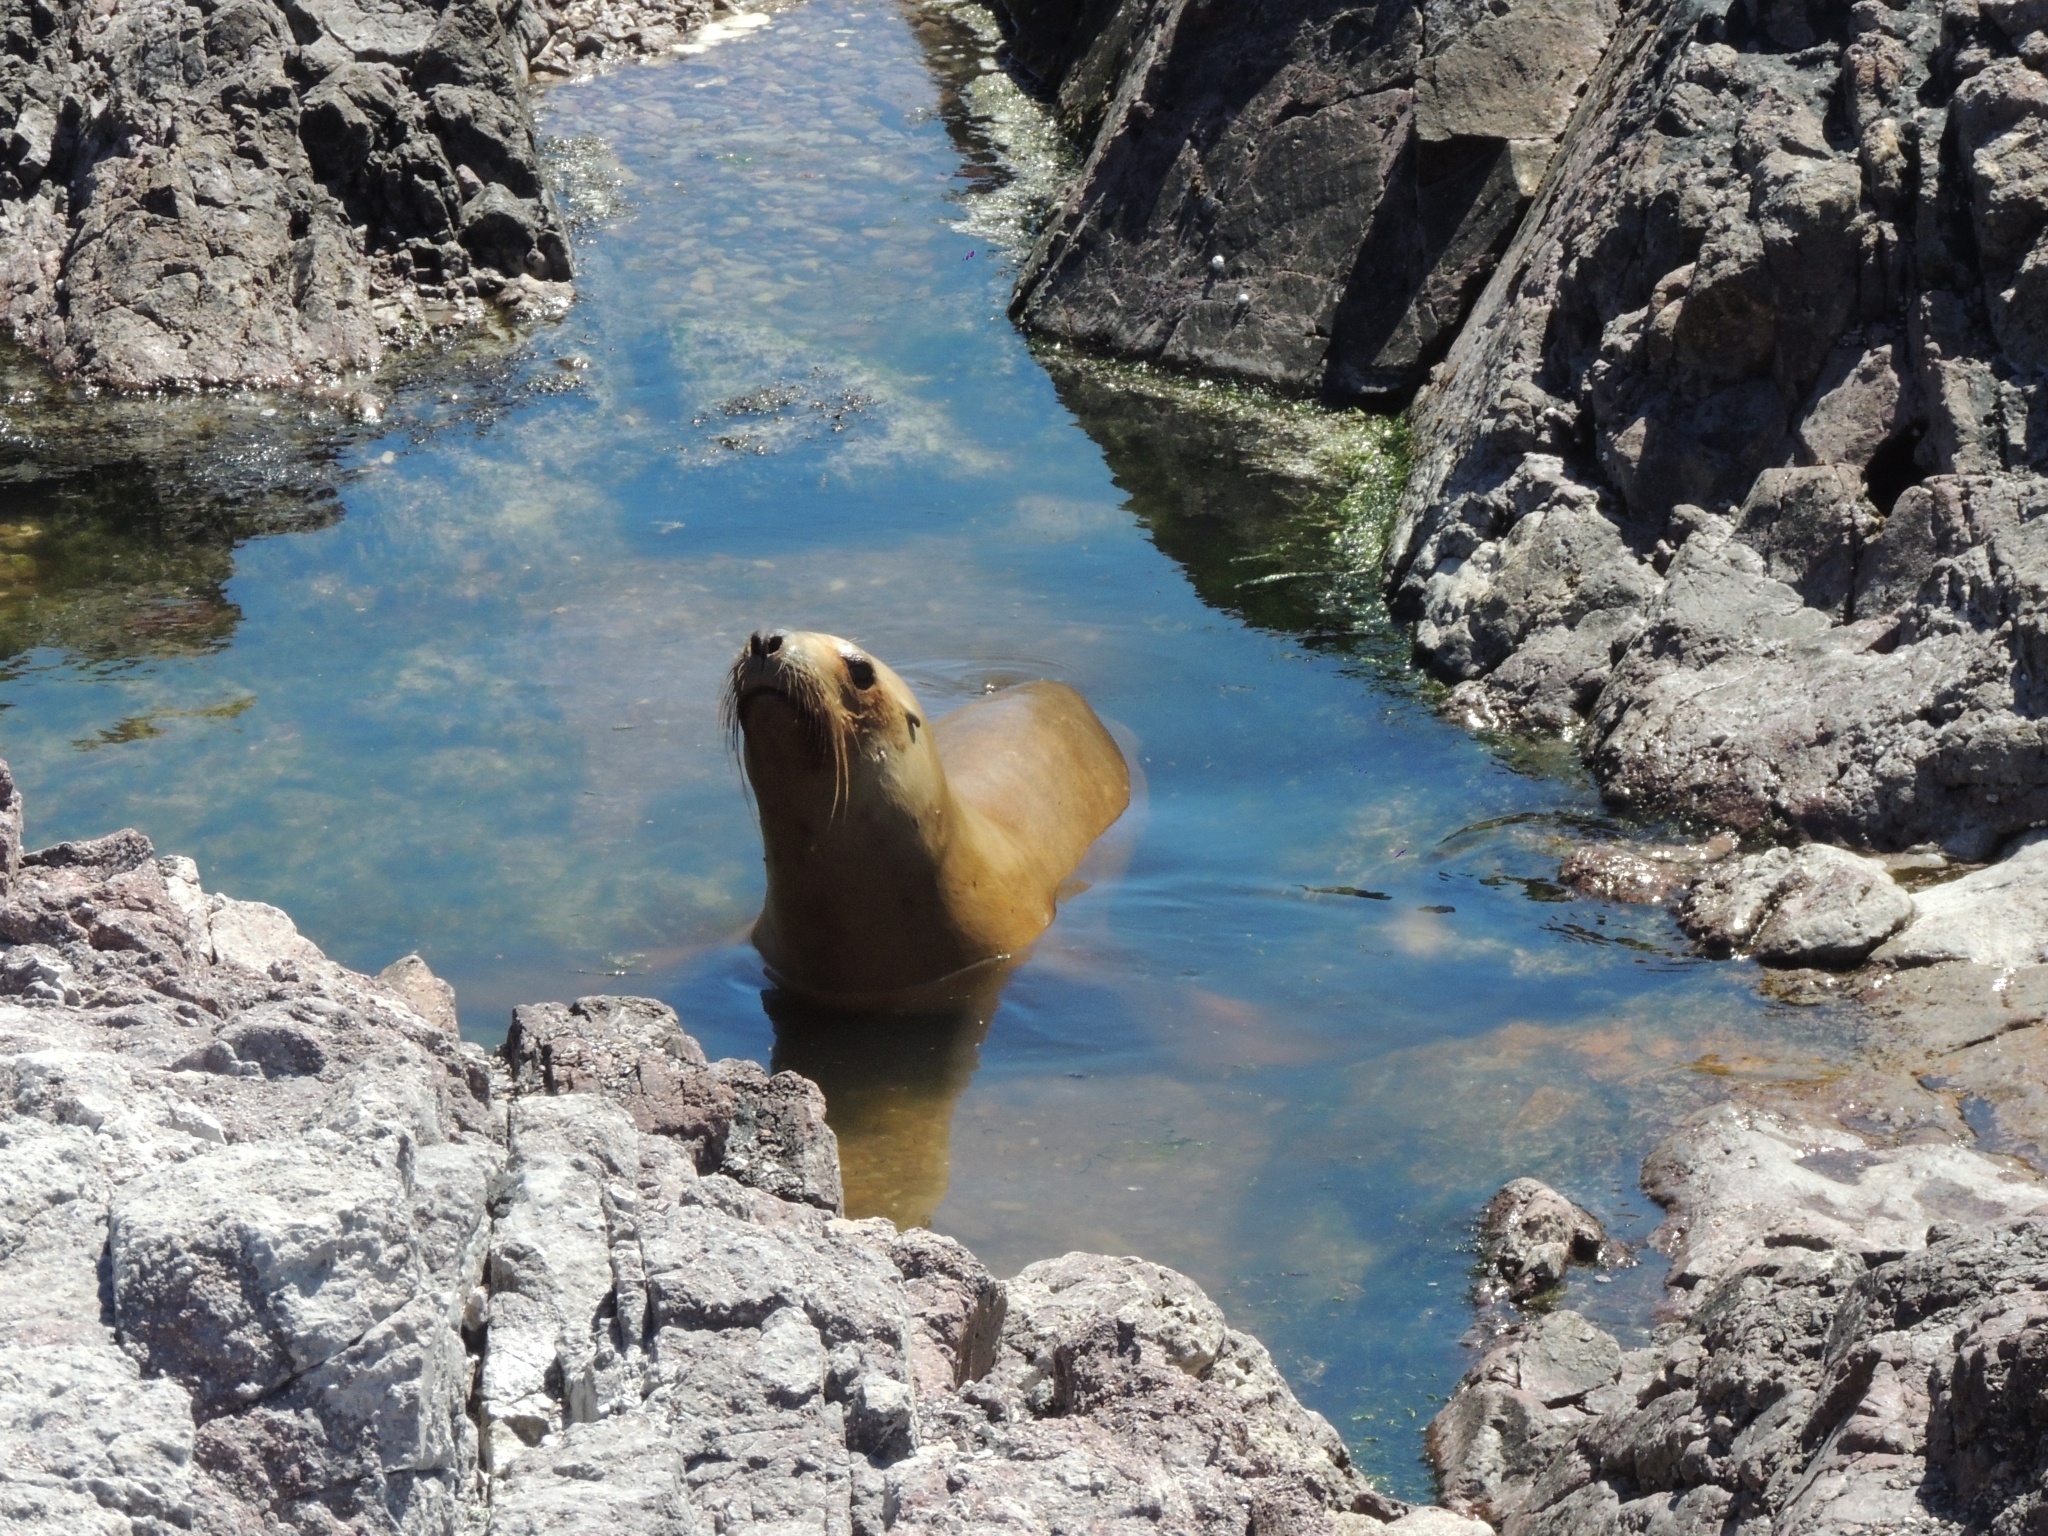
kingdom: Animalia
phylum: Chordata
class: Mammalia
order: Carnivora
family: Otariidae
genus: Otaria
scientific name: Otaria byronia
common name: South american sea lion
